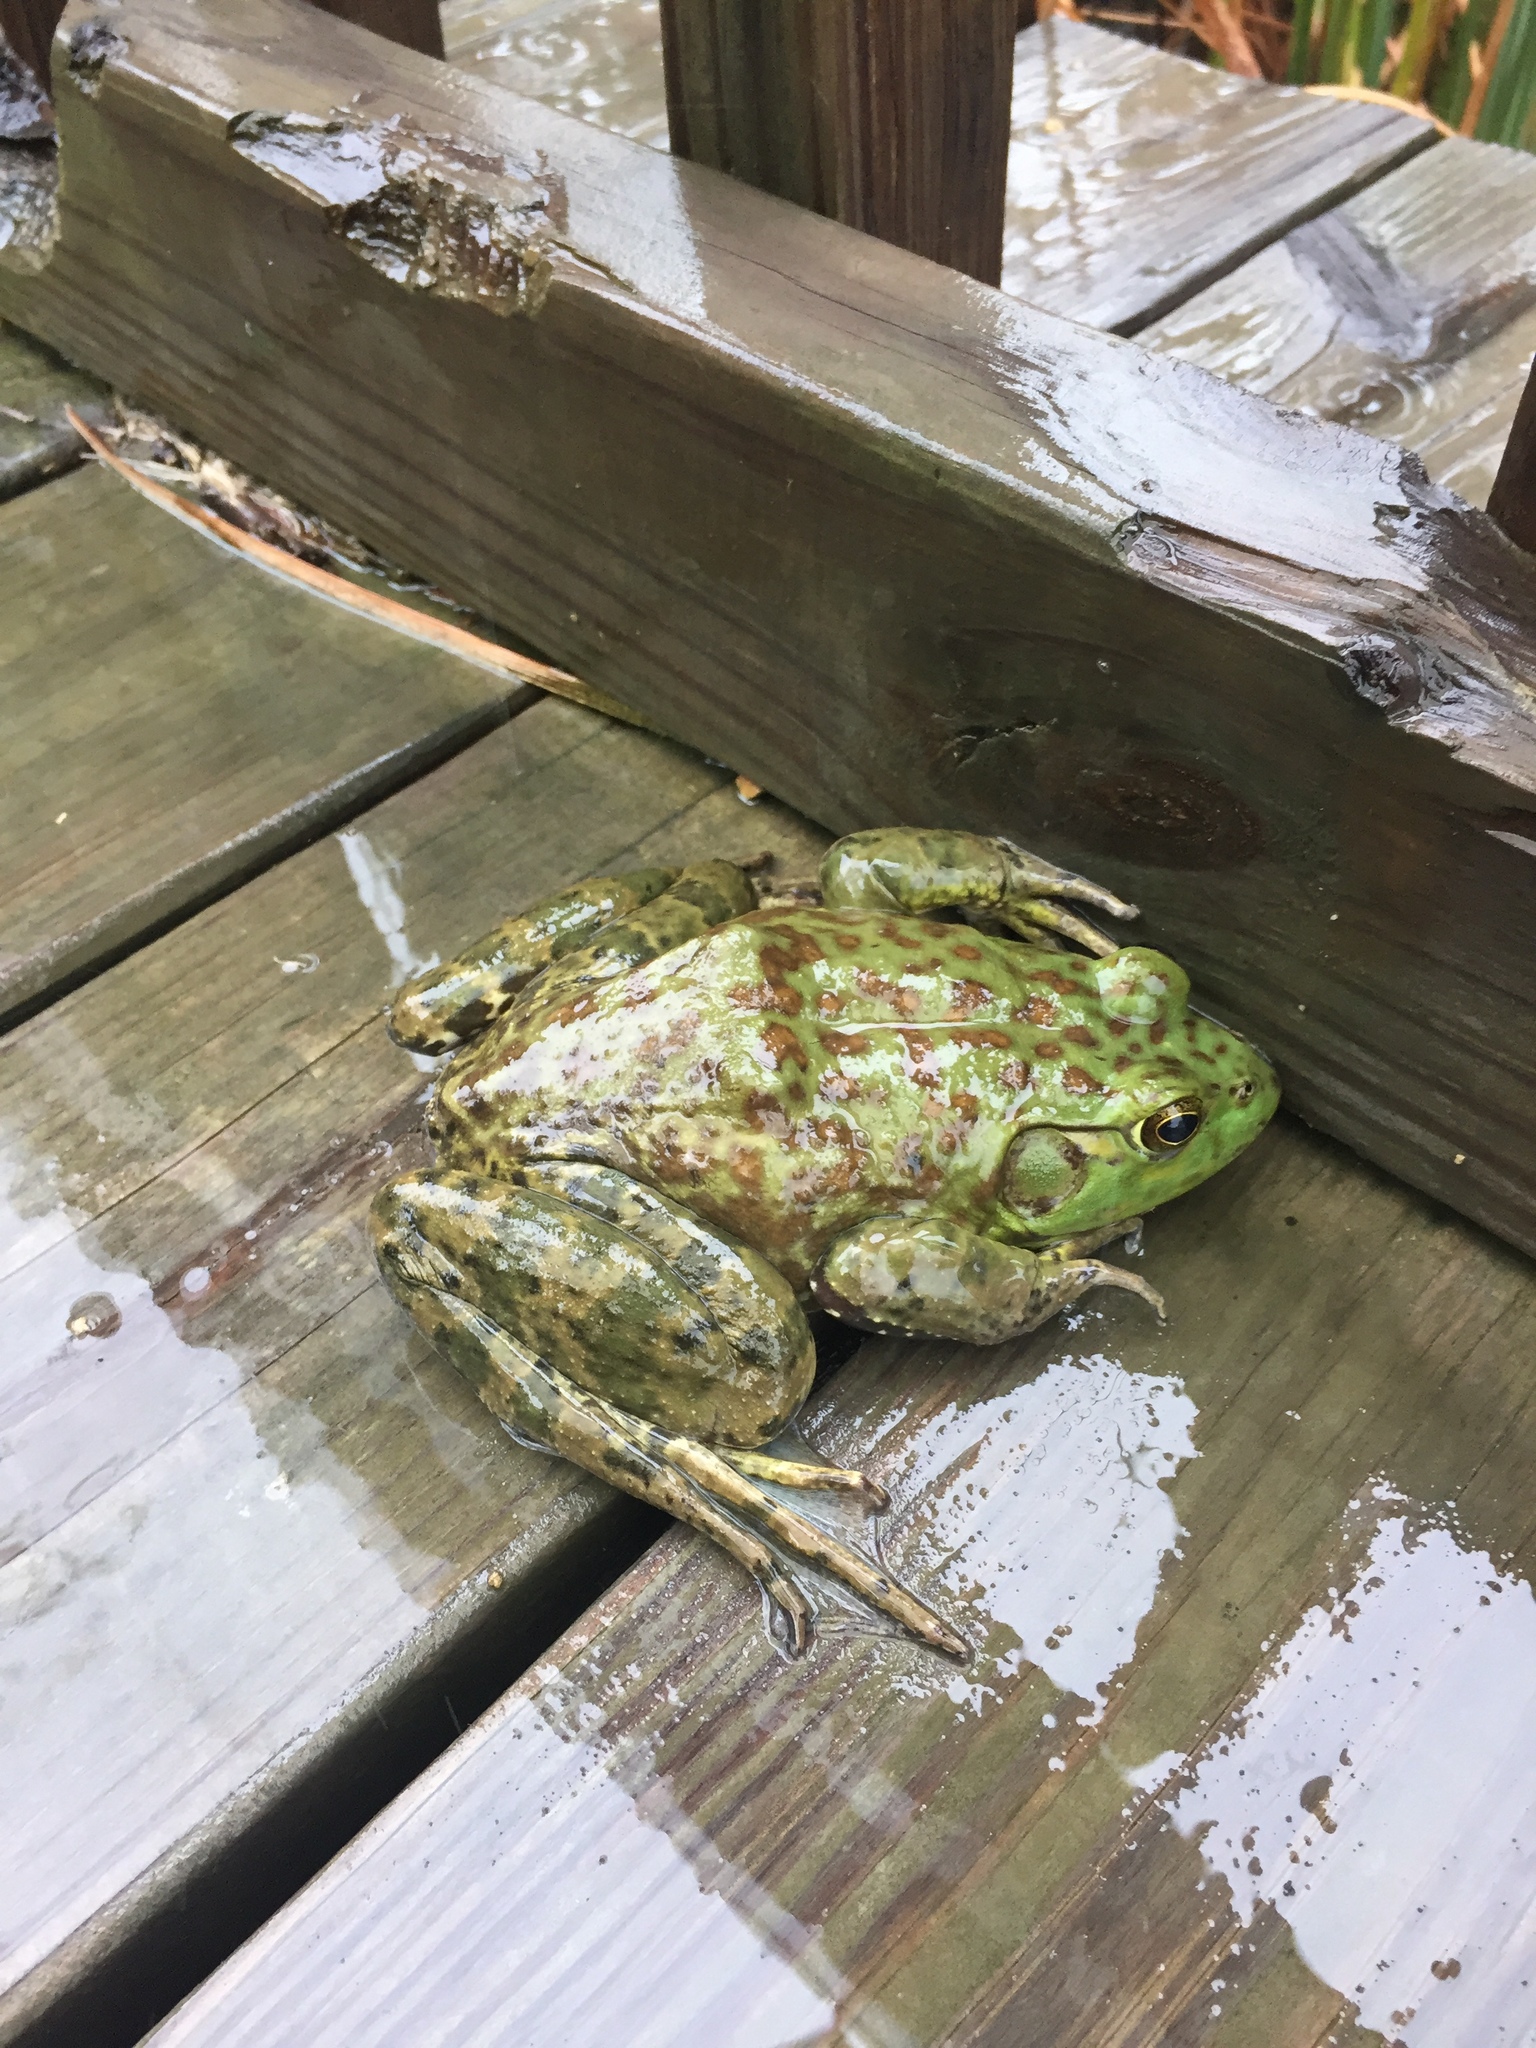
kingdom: Animalia
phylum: Chordata
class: Amphibia
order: Anura
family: Ranidae
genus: Lithobates
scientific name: Lithobates catesbeianus
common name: American bullfrog
